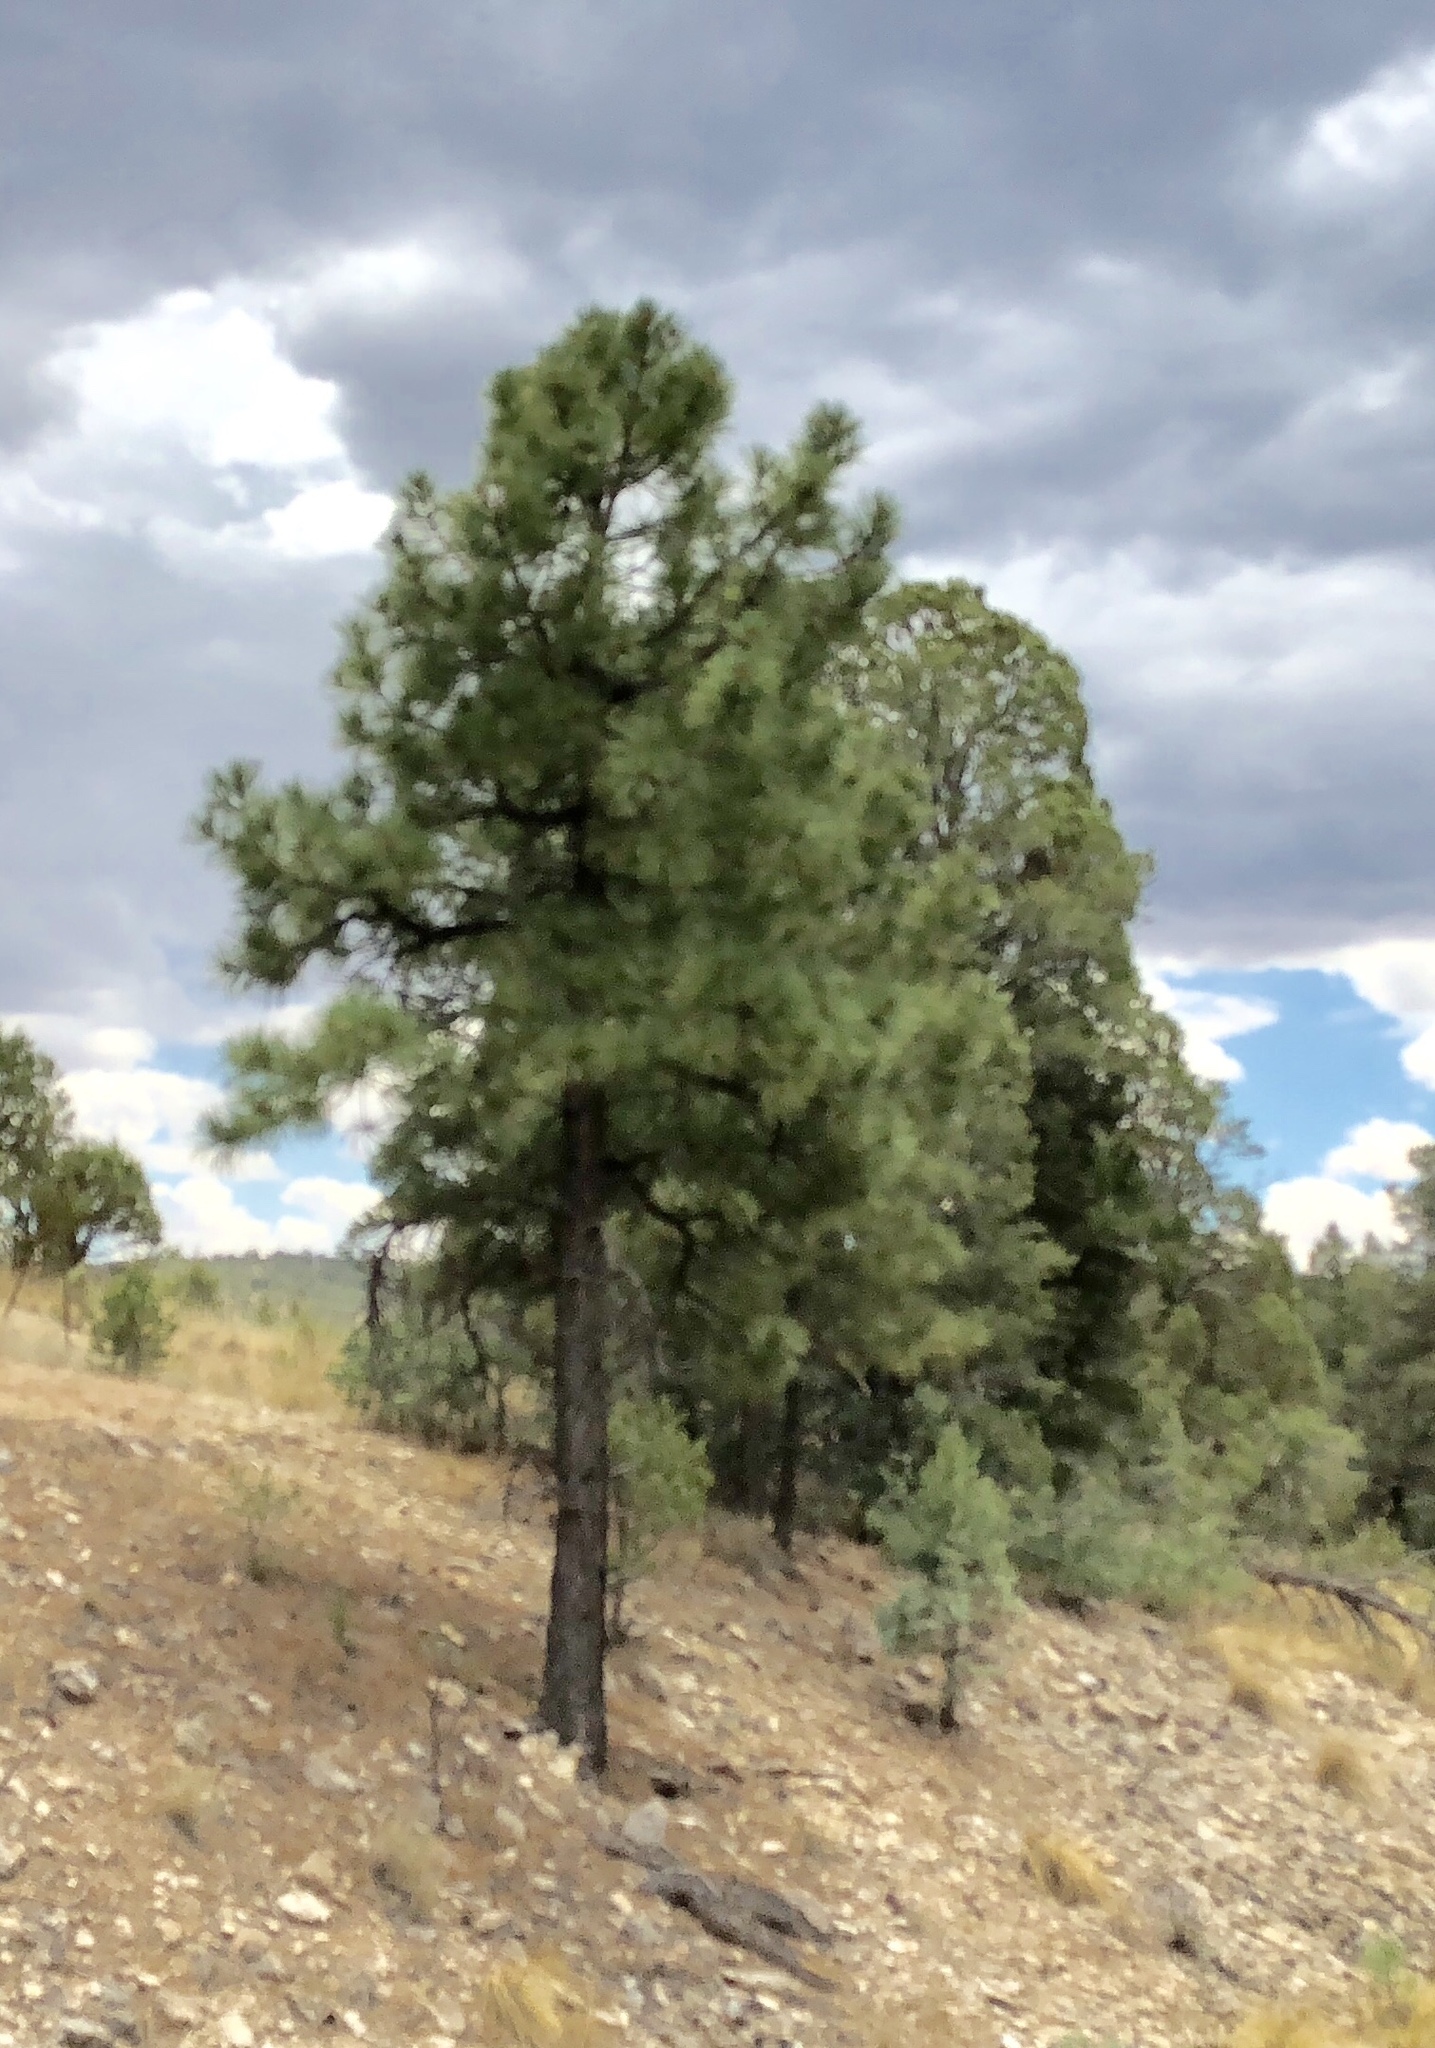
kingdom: Plantae
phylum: Tracheophyta
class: Pinopsida
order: Pinales
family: Pinaceae
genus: Pinus
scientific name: Pinus ponderosa
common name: Western yellow-pine
